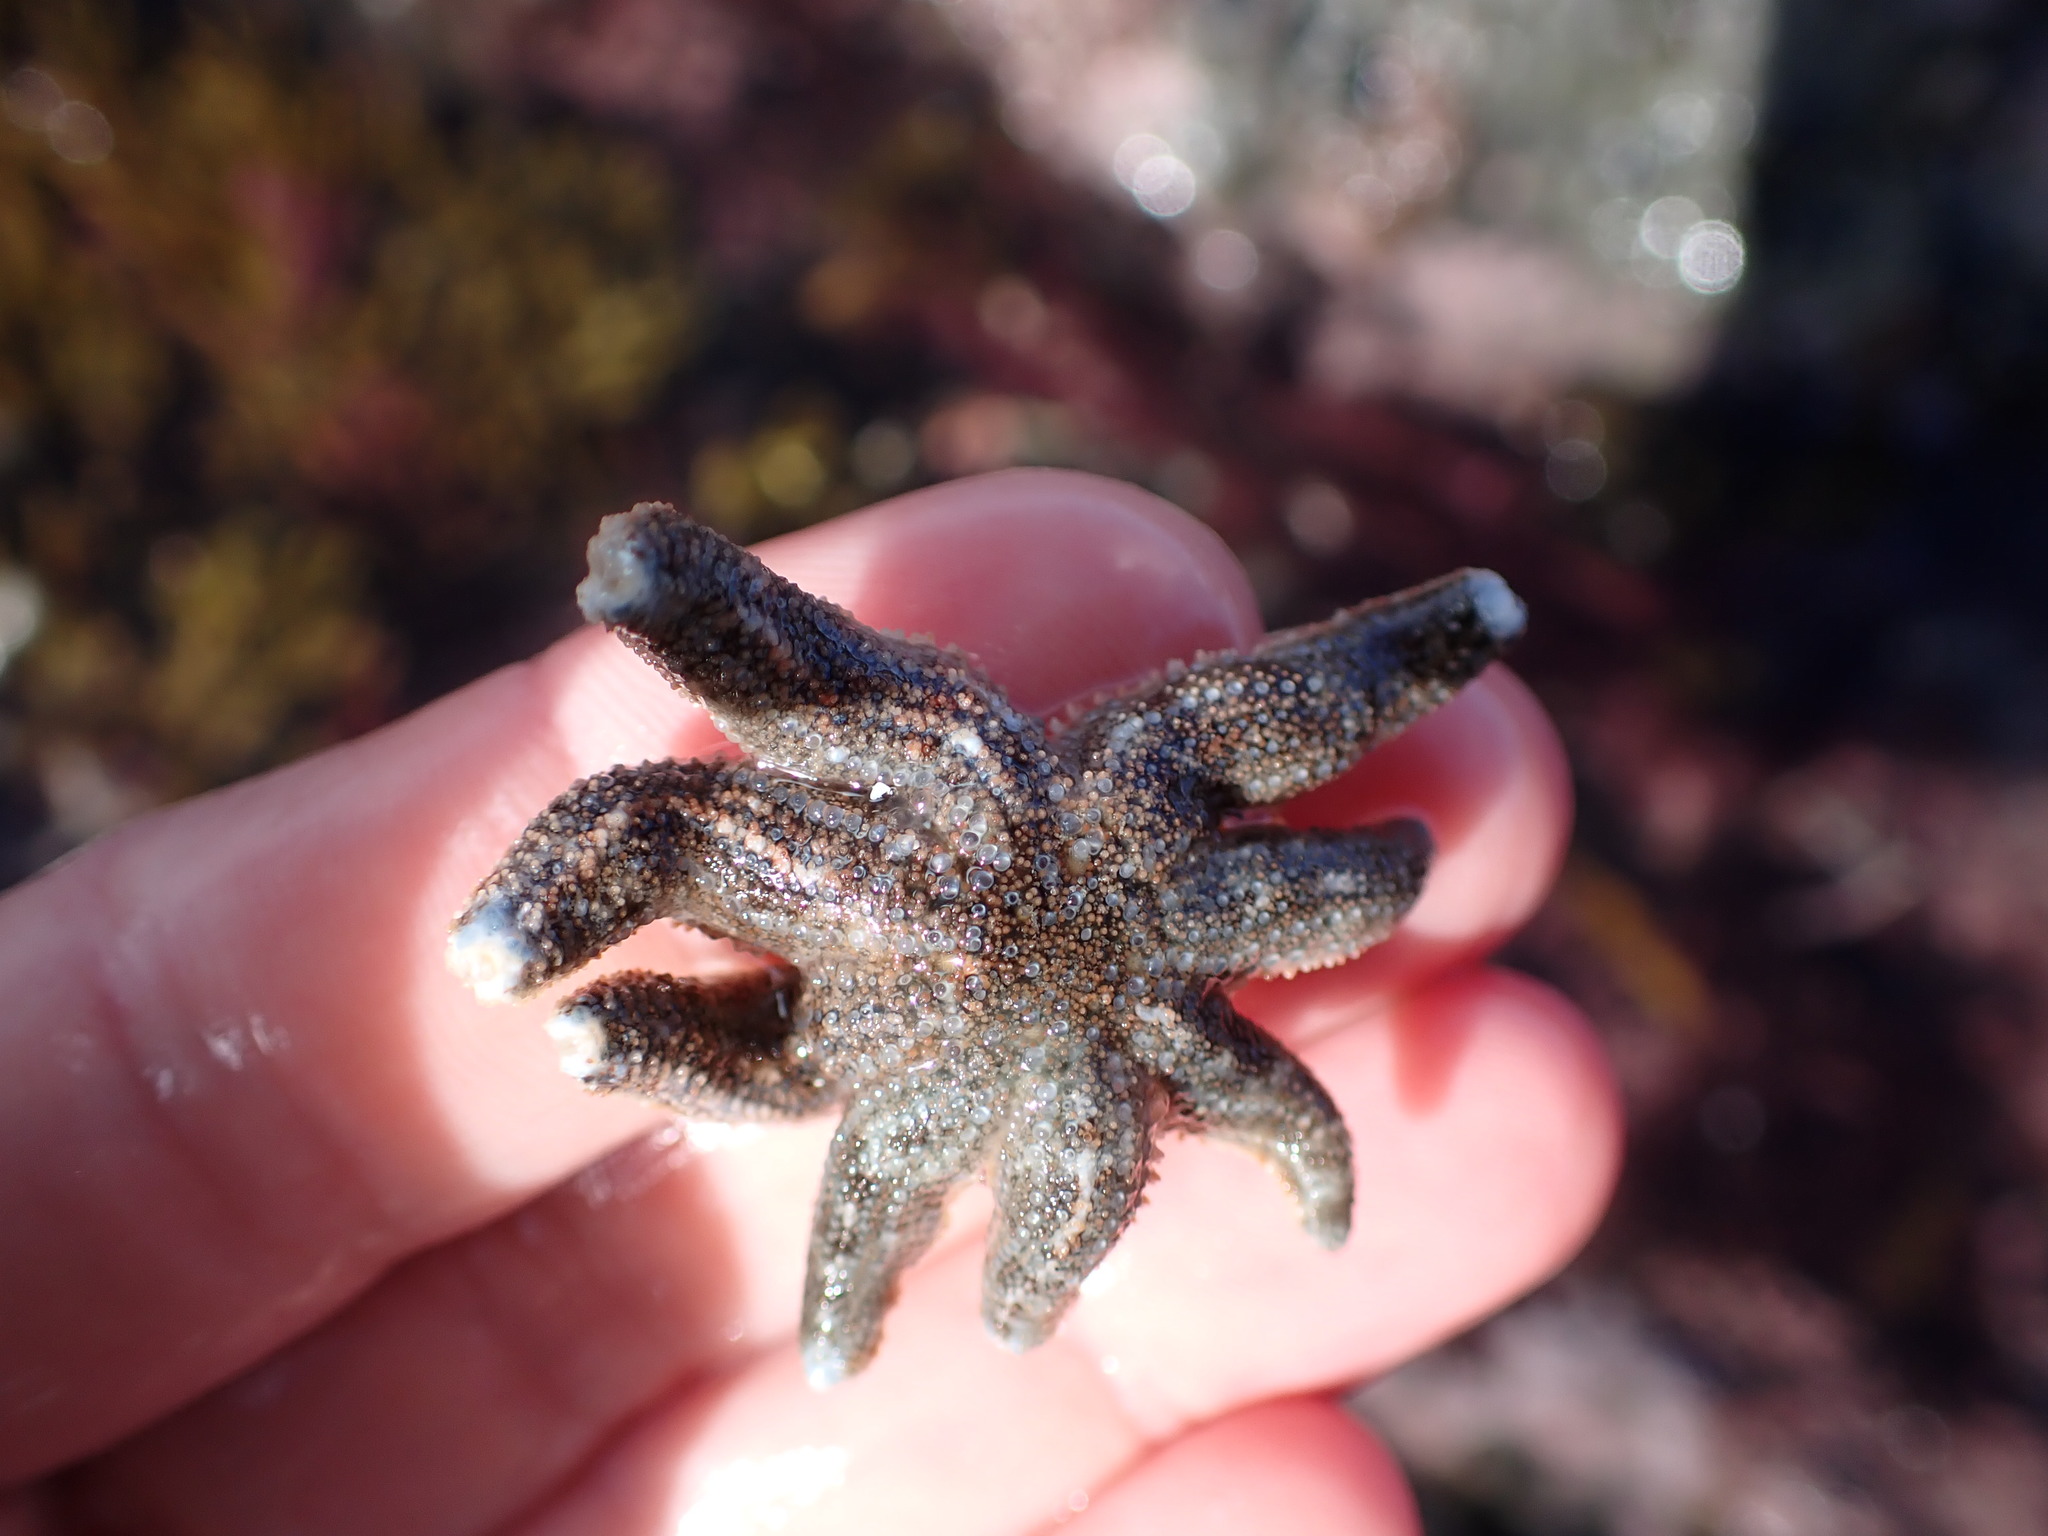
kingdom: Animalia
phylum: Echinodermata
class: Asteroidea
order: Forcipulatida
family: Stichasteridae
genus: Allostichaster
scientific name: Allostichaster polyplax
